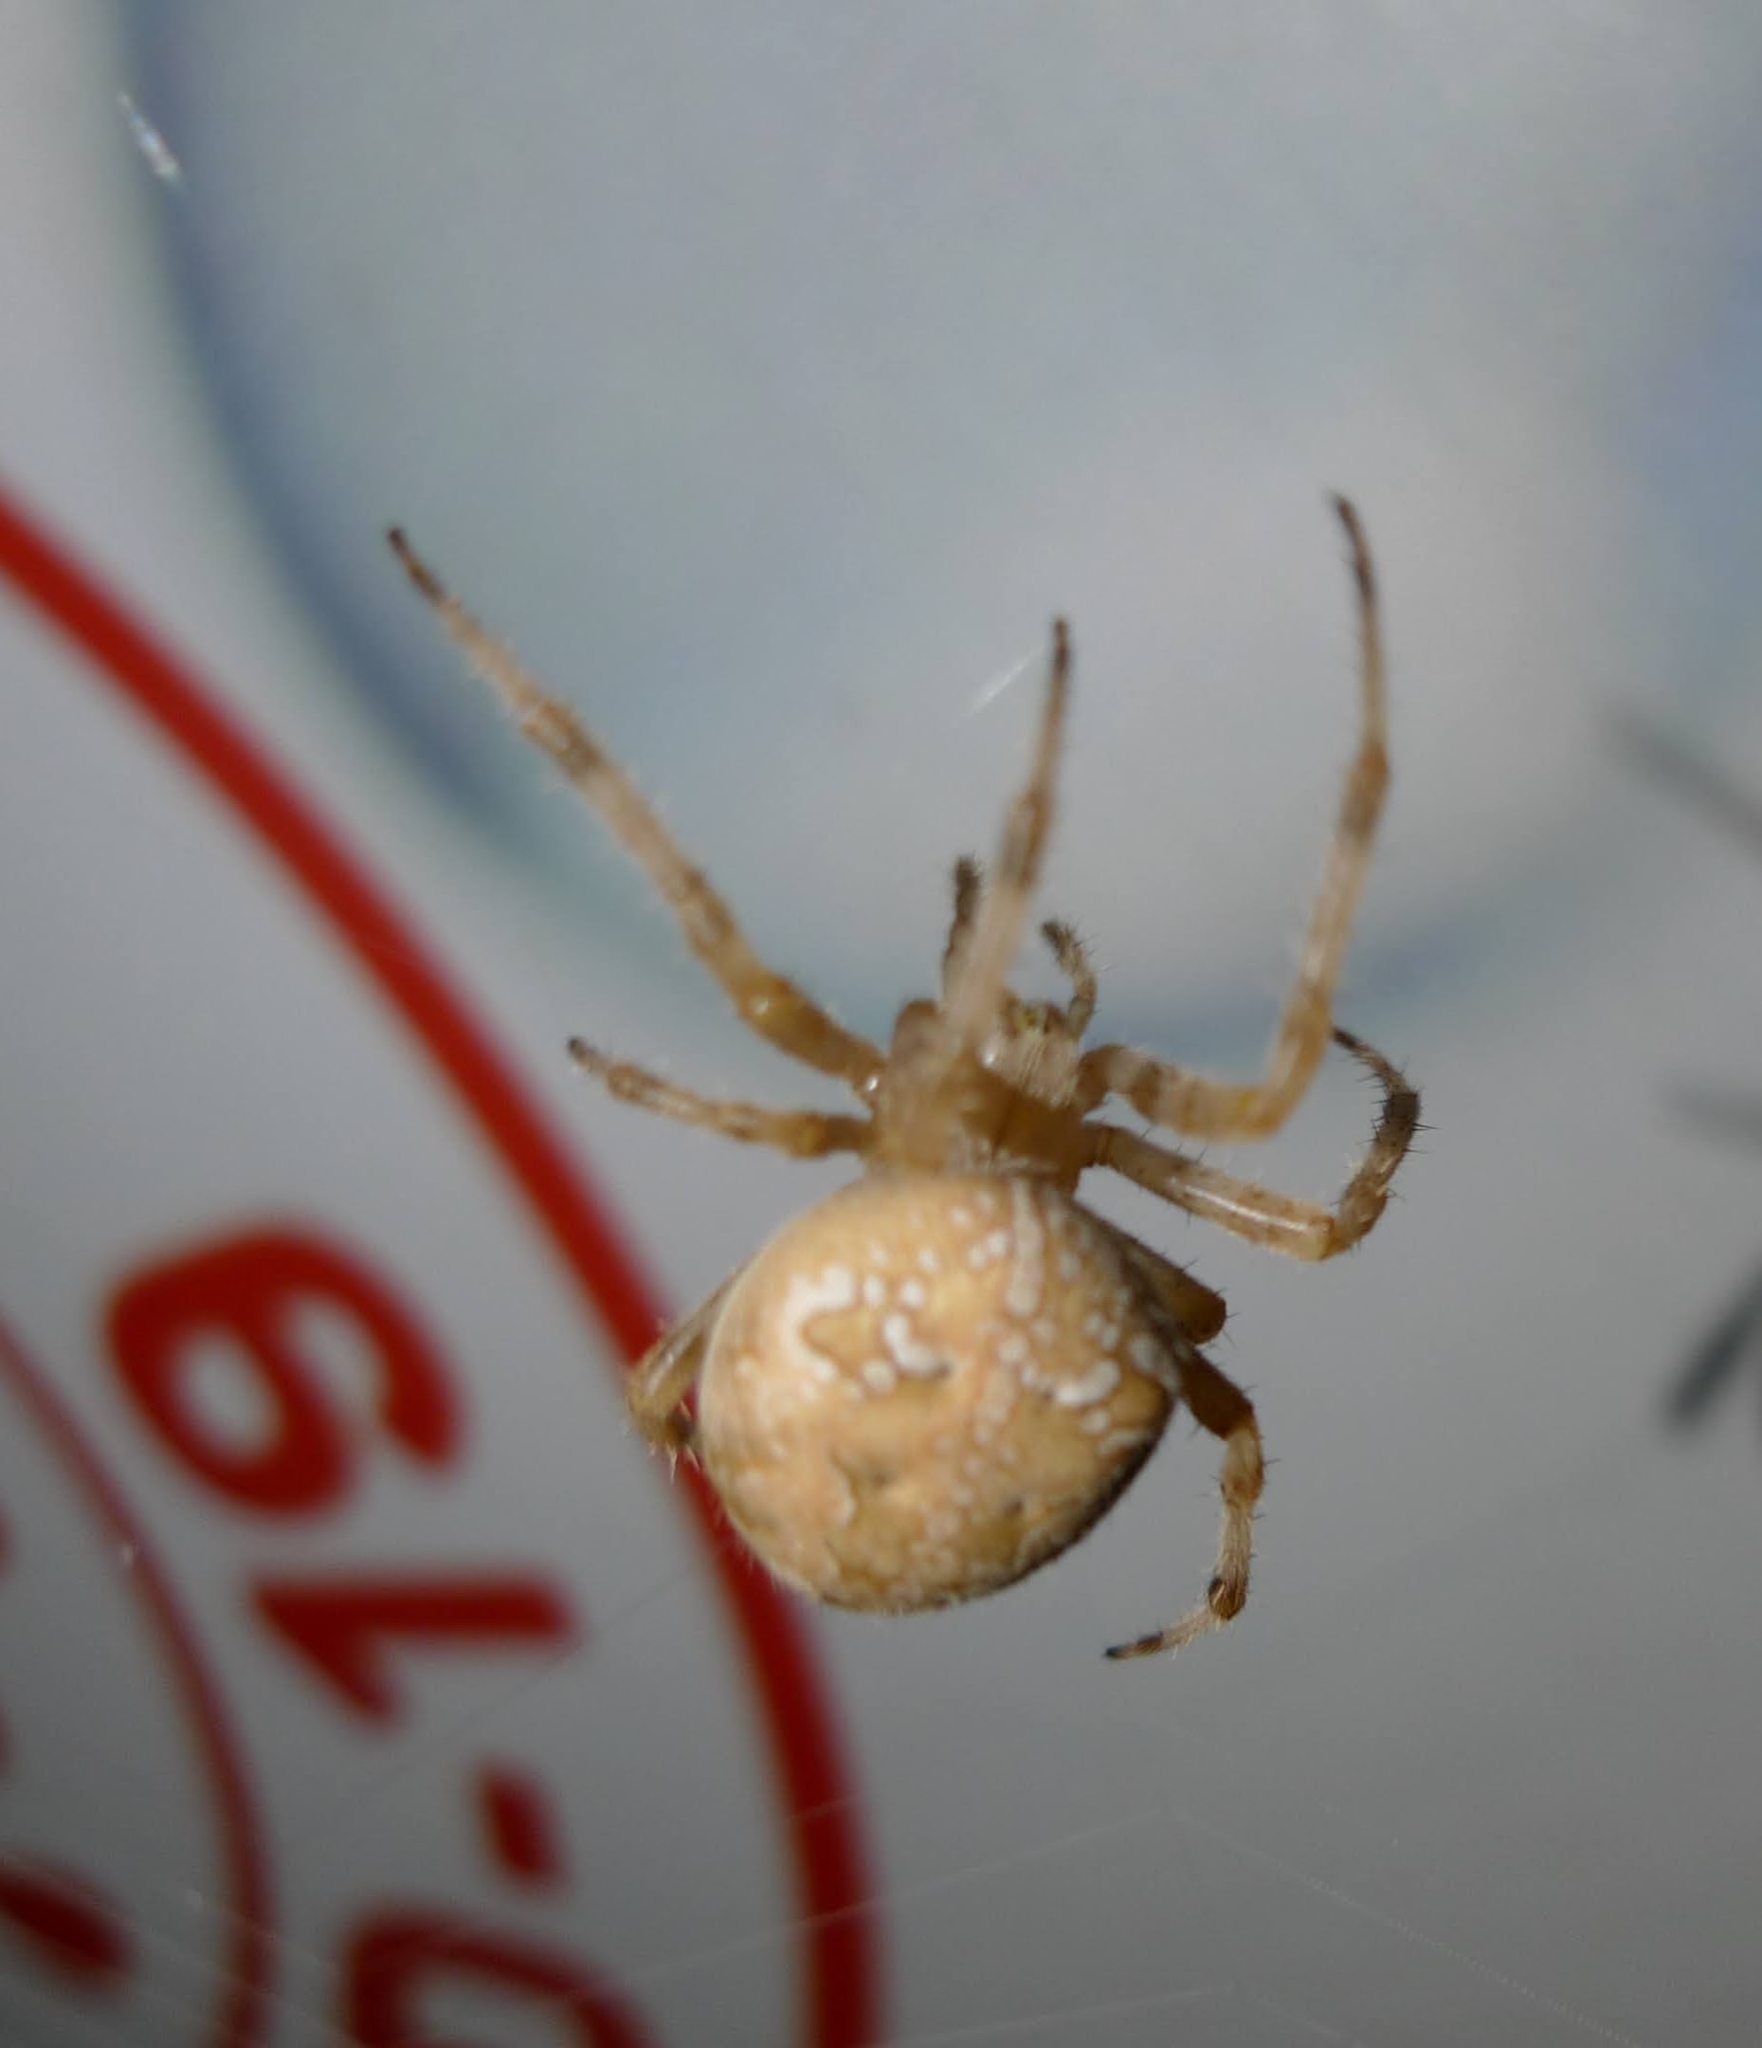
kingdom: Animalia
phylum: Arthropoda
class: Arachnida
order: Araneae
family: Araneidae
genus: Araneus
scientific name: Araneus diadematus
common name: Cross orbweaver
